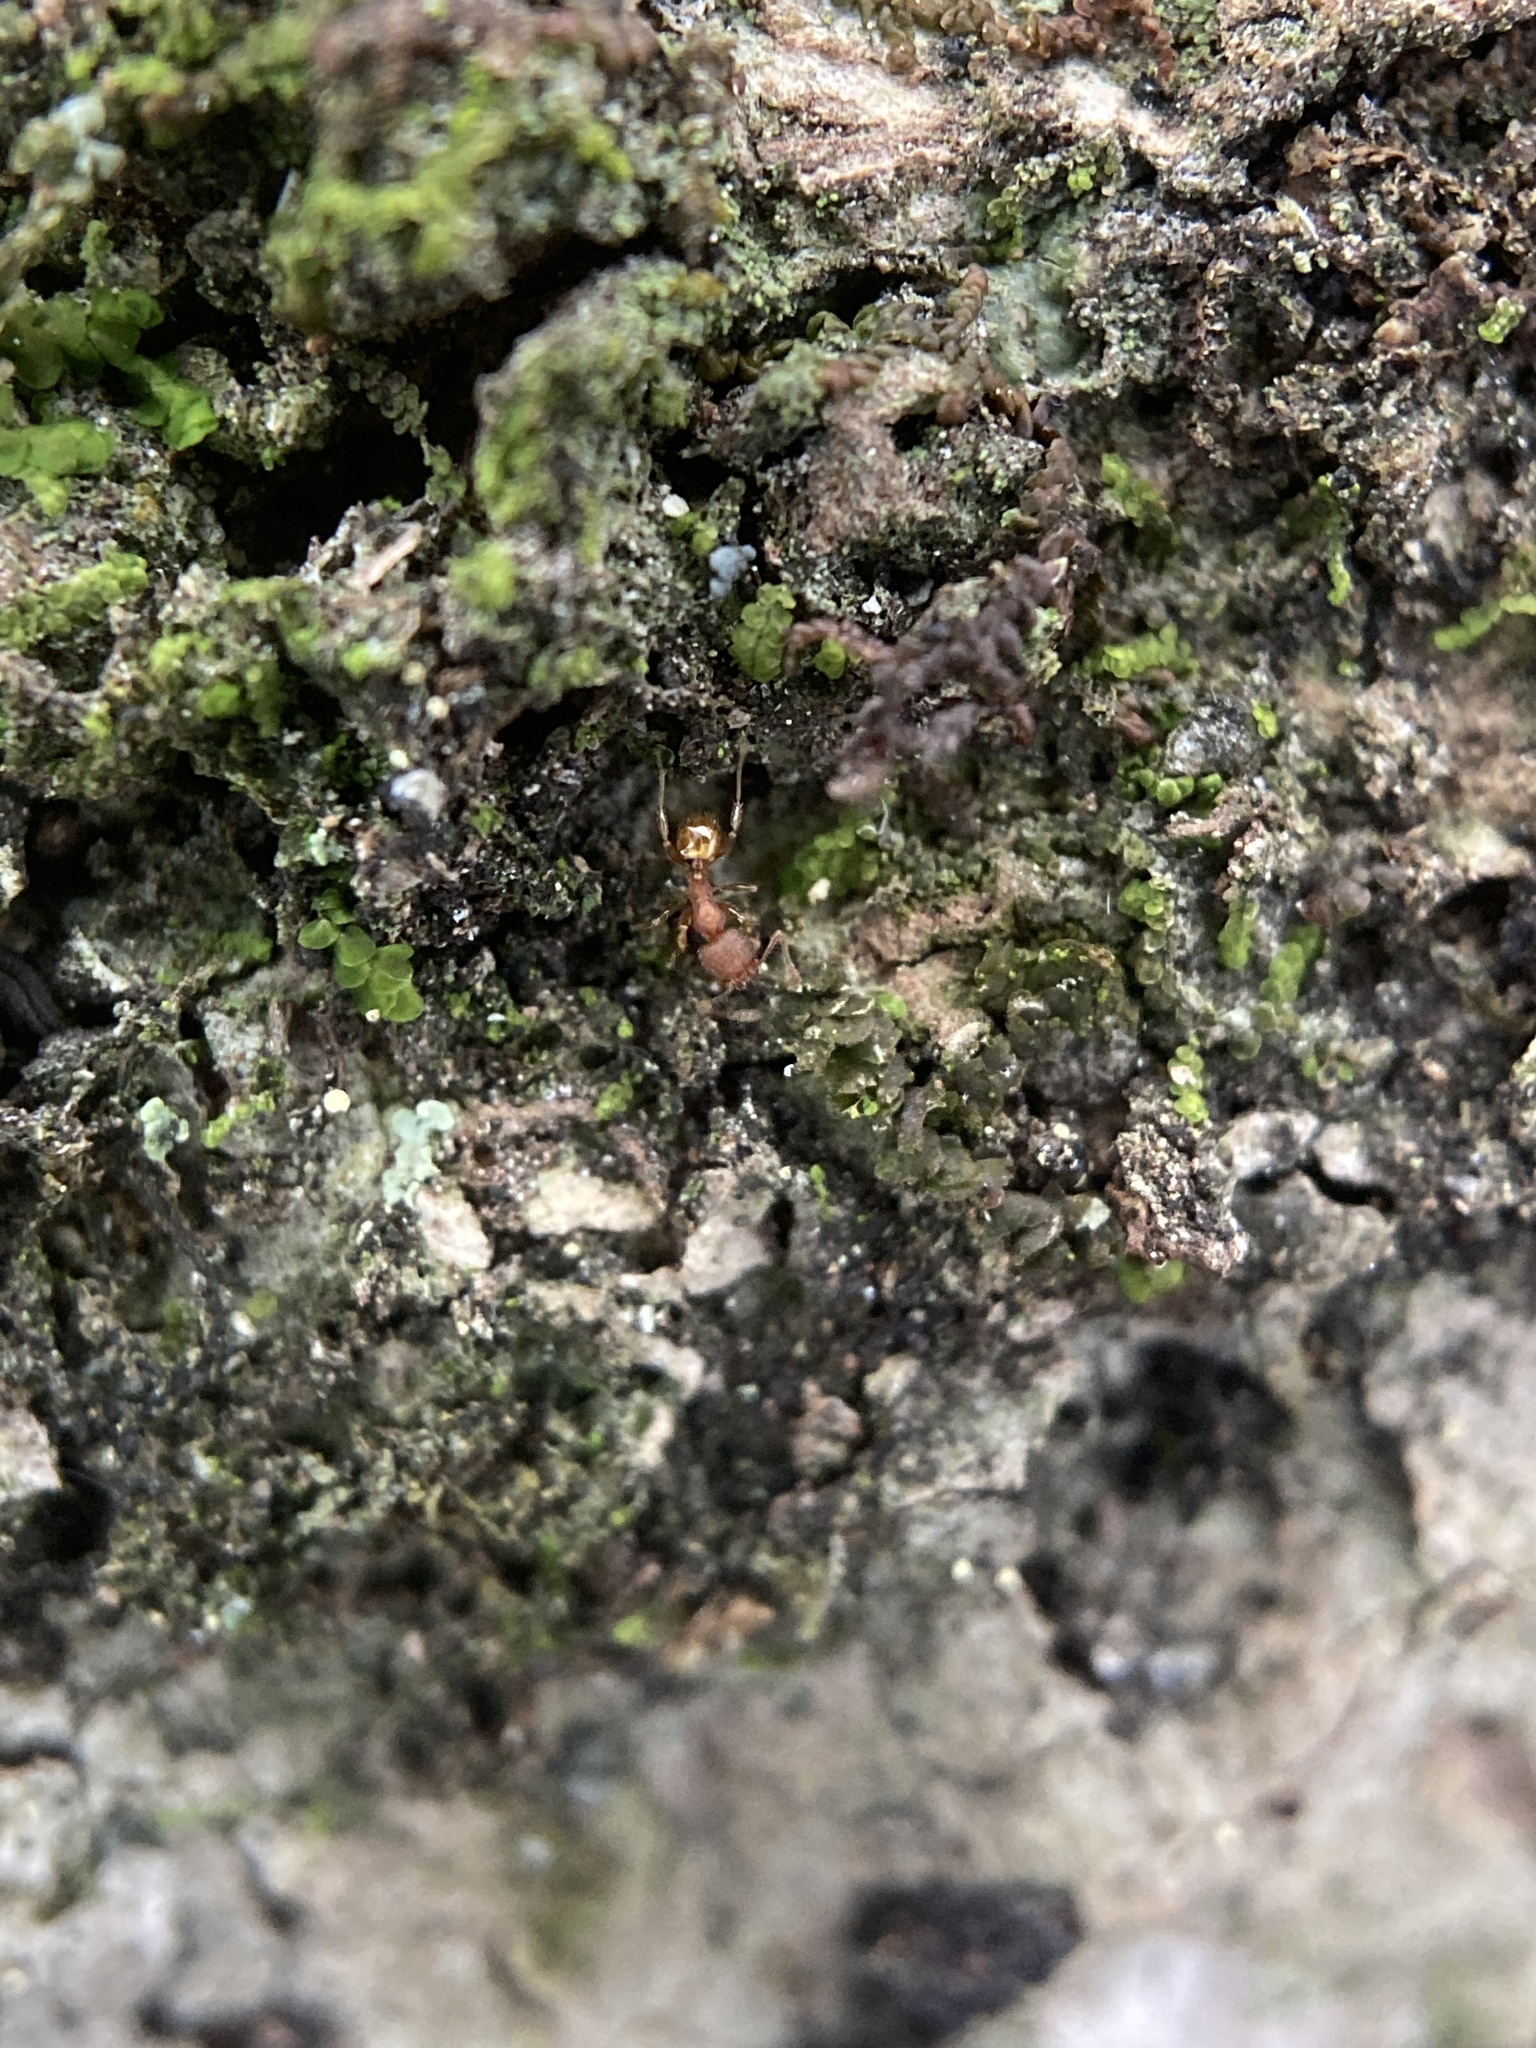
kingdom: Animalia
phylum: Arthropoda
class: Insecta
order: Hymenoptera
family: Formicidae
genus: Pheidole
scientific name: Pheidole navigans
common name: Navigating big-headed ant
